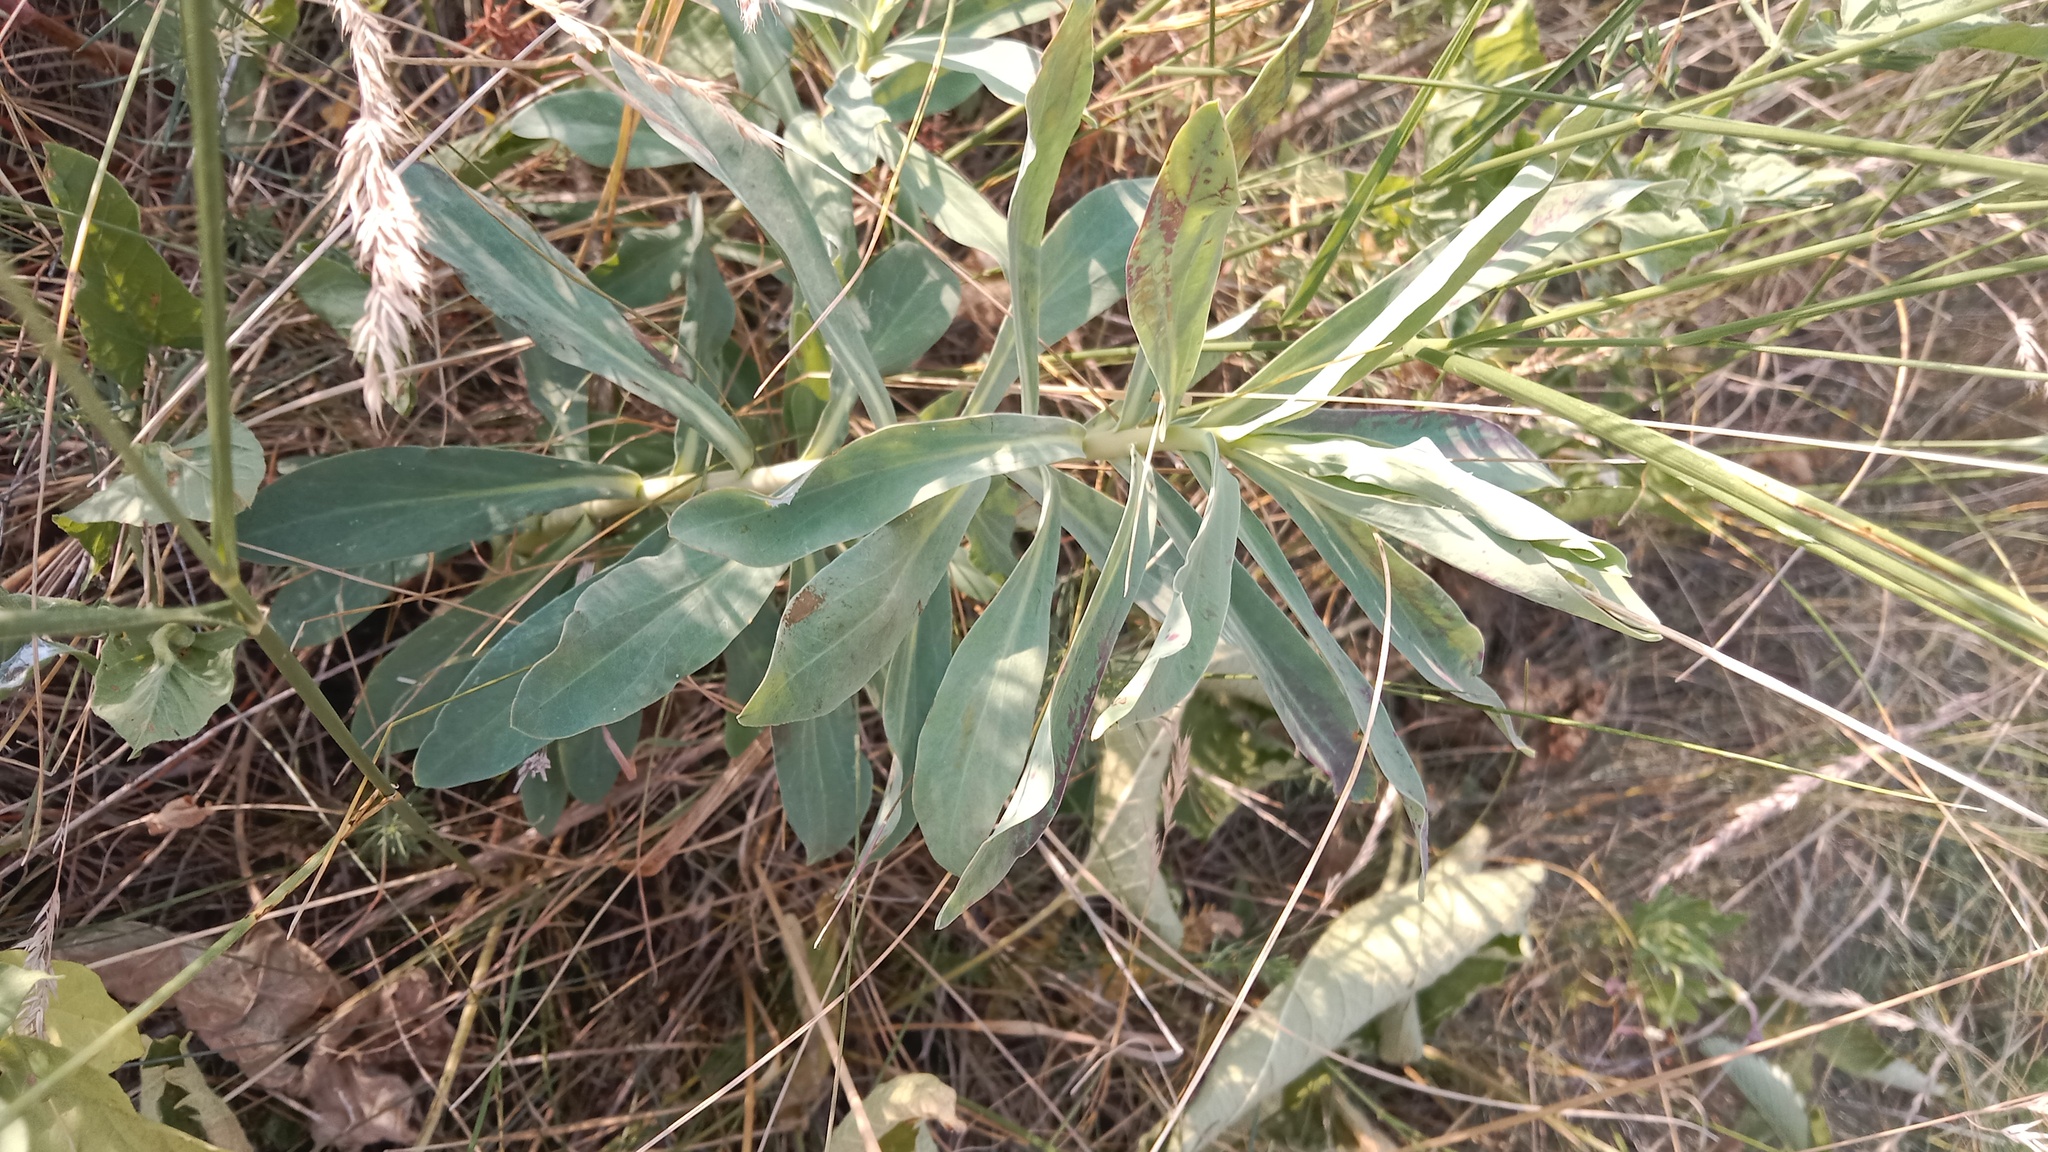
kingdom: Plantae
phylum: Tracheophyta
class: Magnoliopsida
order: Malpighiales
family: Euphorbiaceae
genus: Euphorbia
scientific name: Euphorbia stepposa
